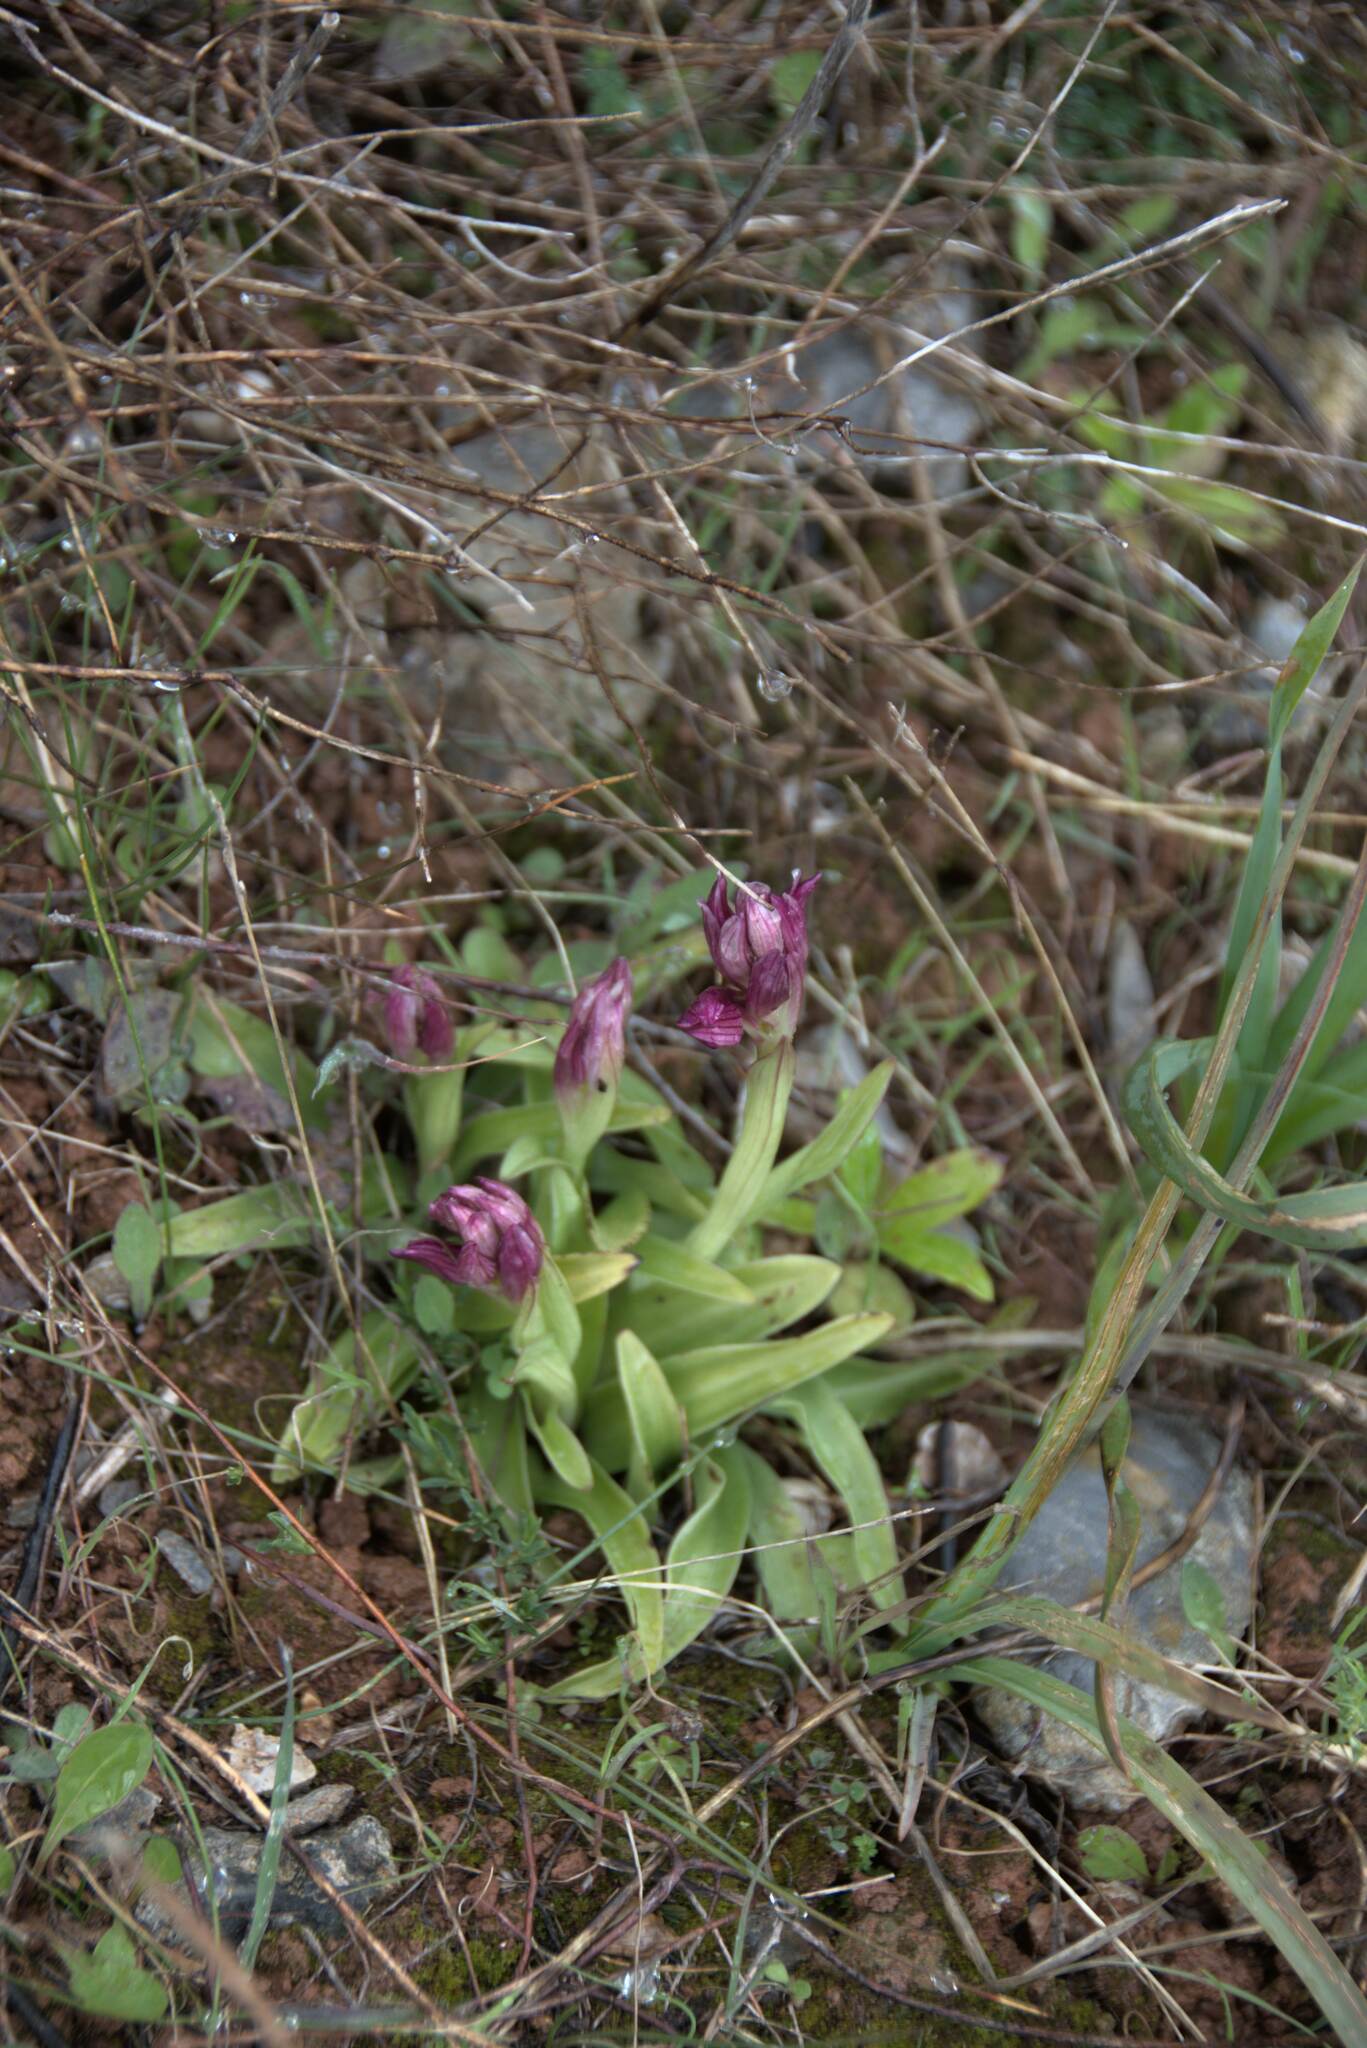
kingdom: Plantae
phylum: Tracheophyta
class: Liliopsida
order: Asparagales
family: Orchidaceae
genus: Anacamptis
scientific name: Anacamptis papilionacea
